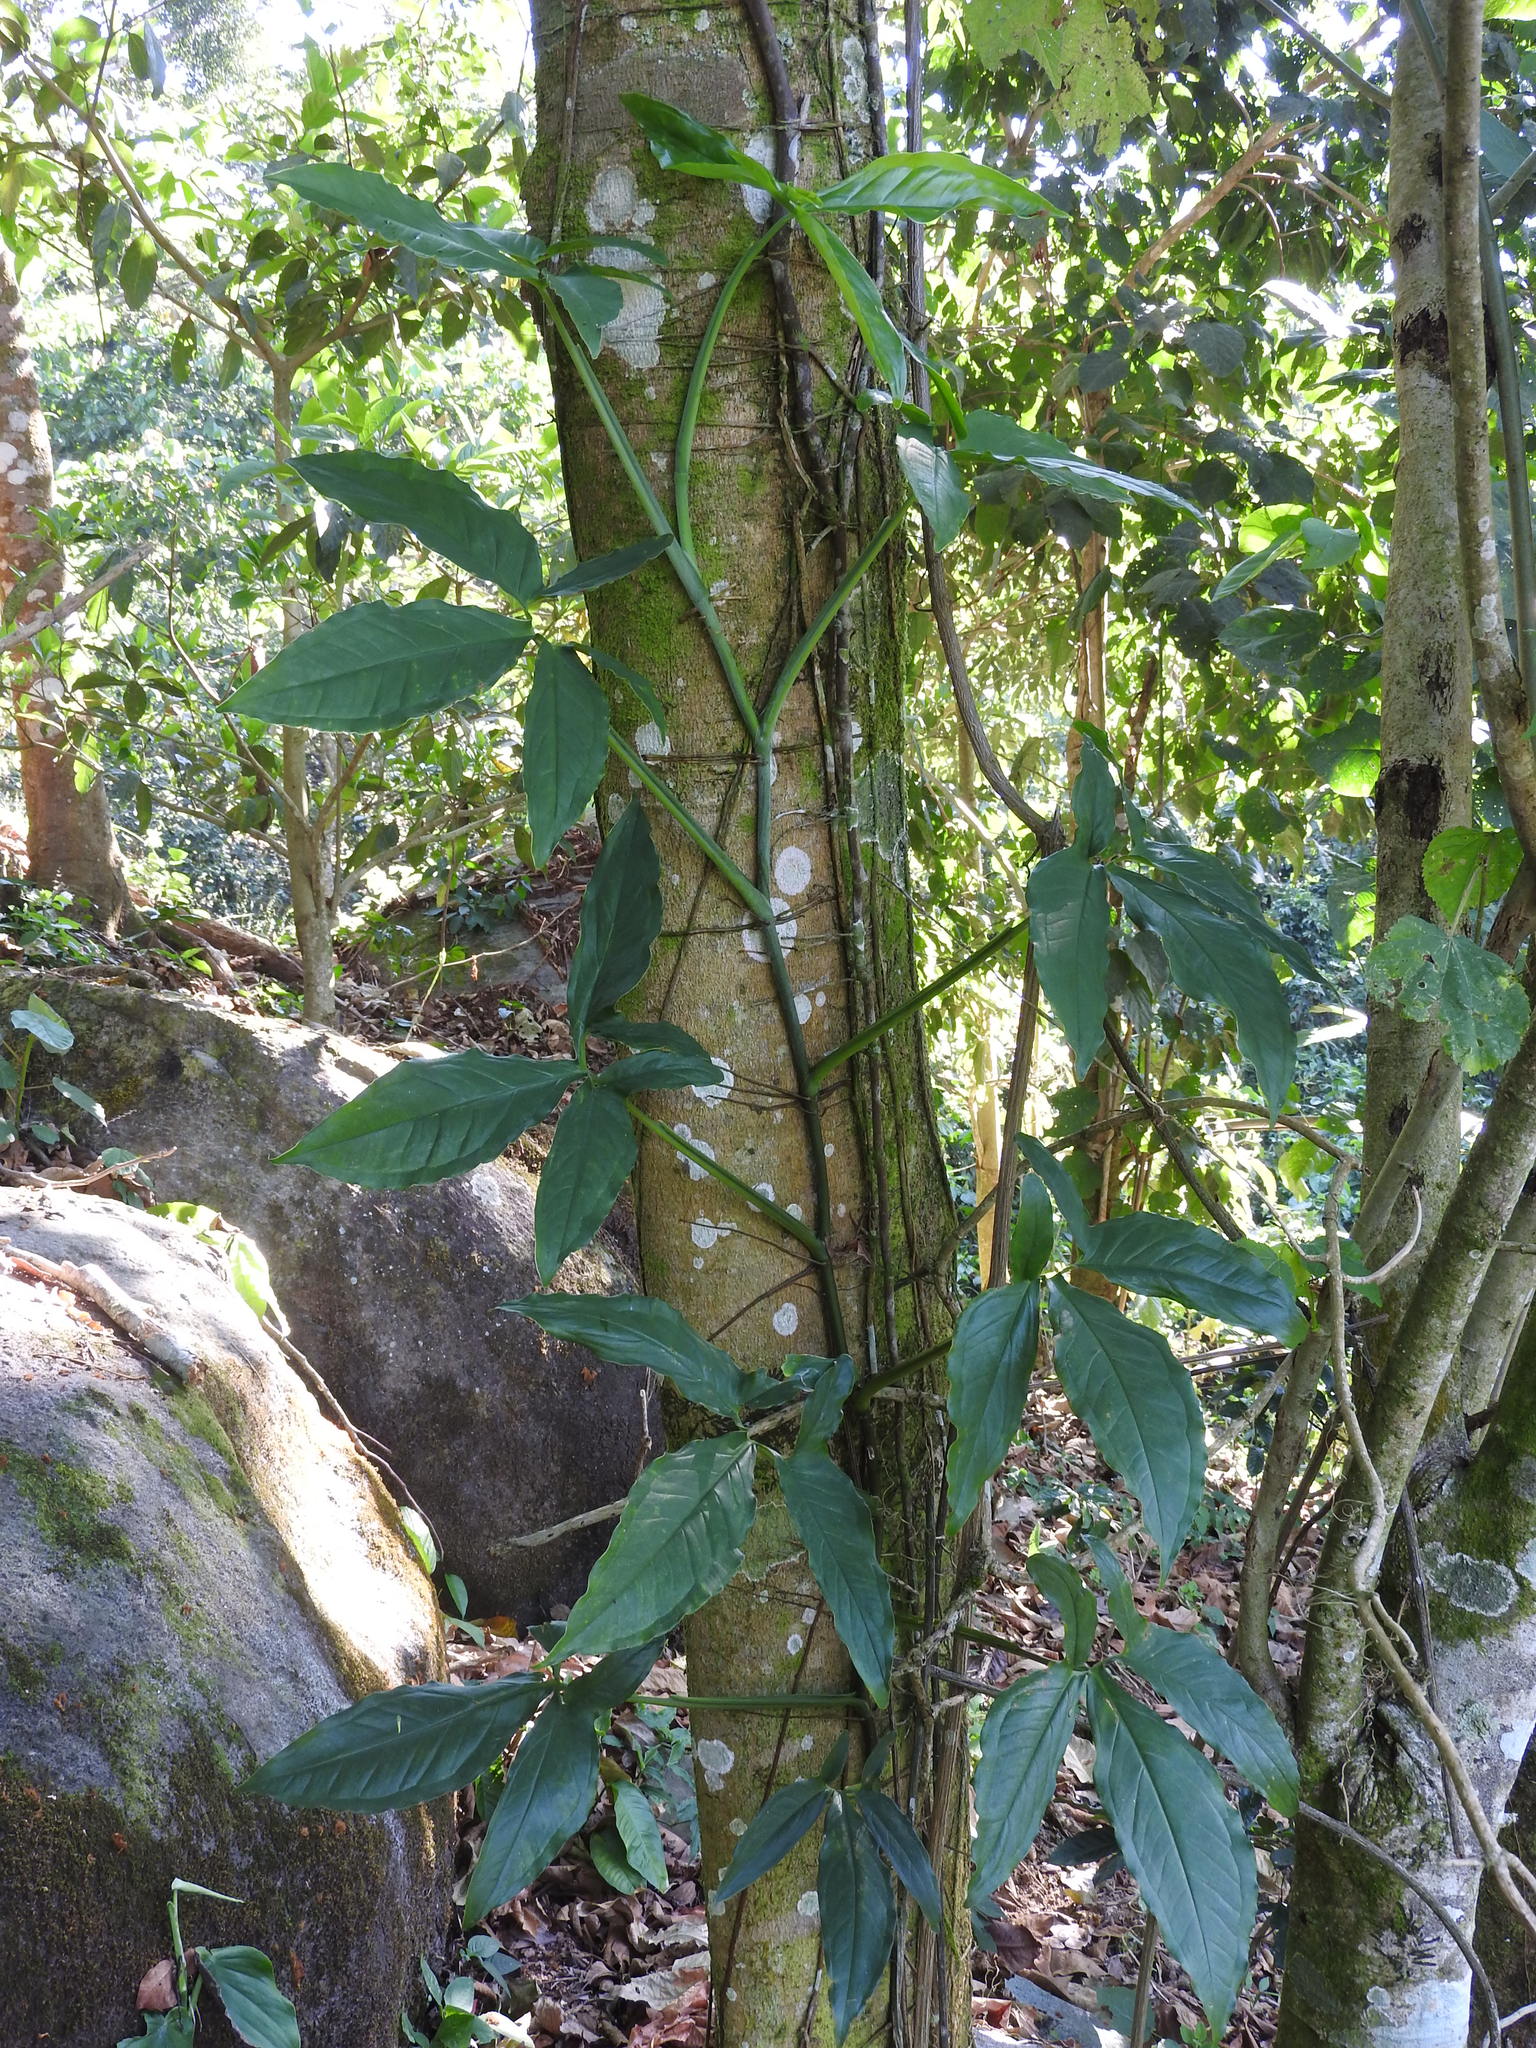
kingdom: Plantae
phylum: Tracheophyta
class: Liliopsida
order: Alismatales
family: Araceae
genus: Syngonium
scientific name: Syngonium podophyllum
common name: American evergreen
